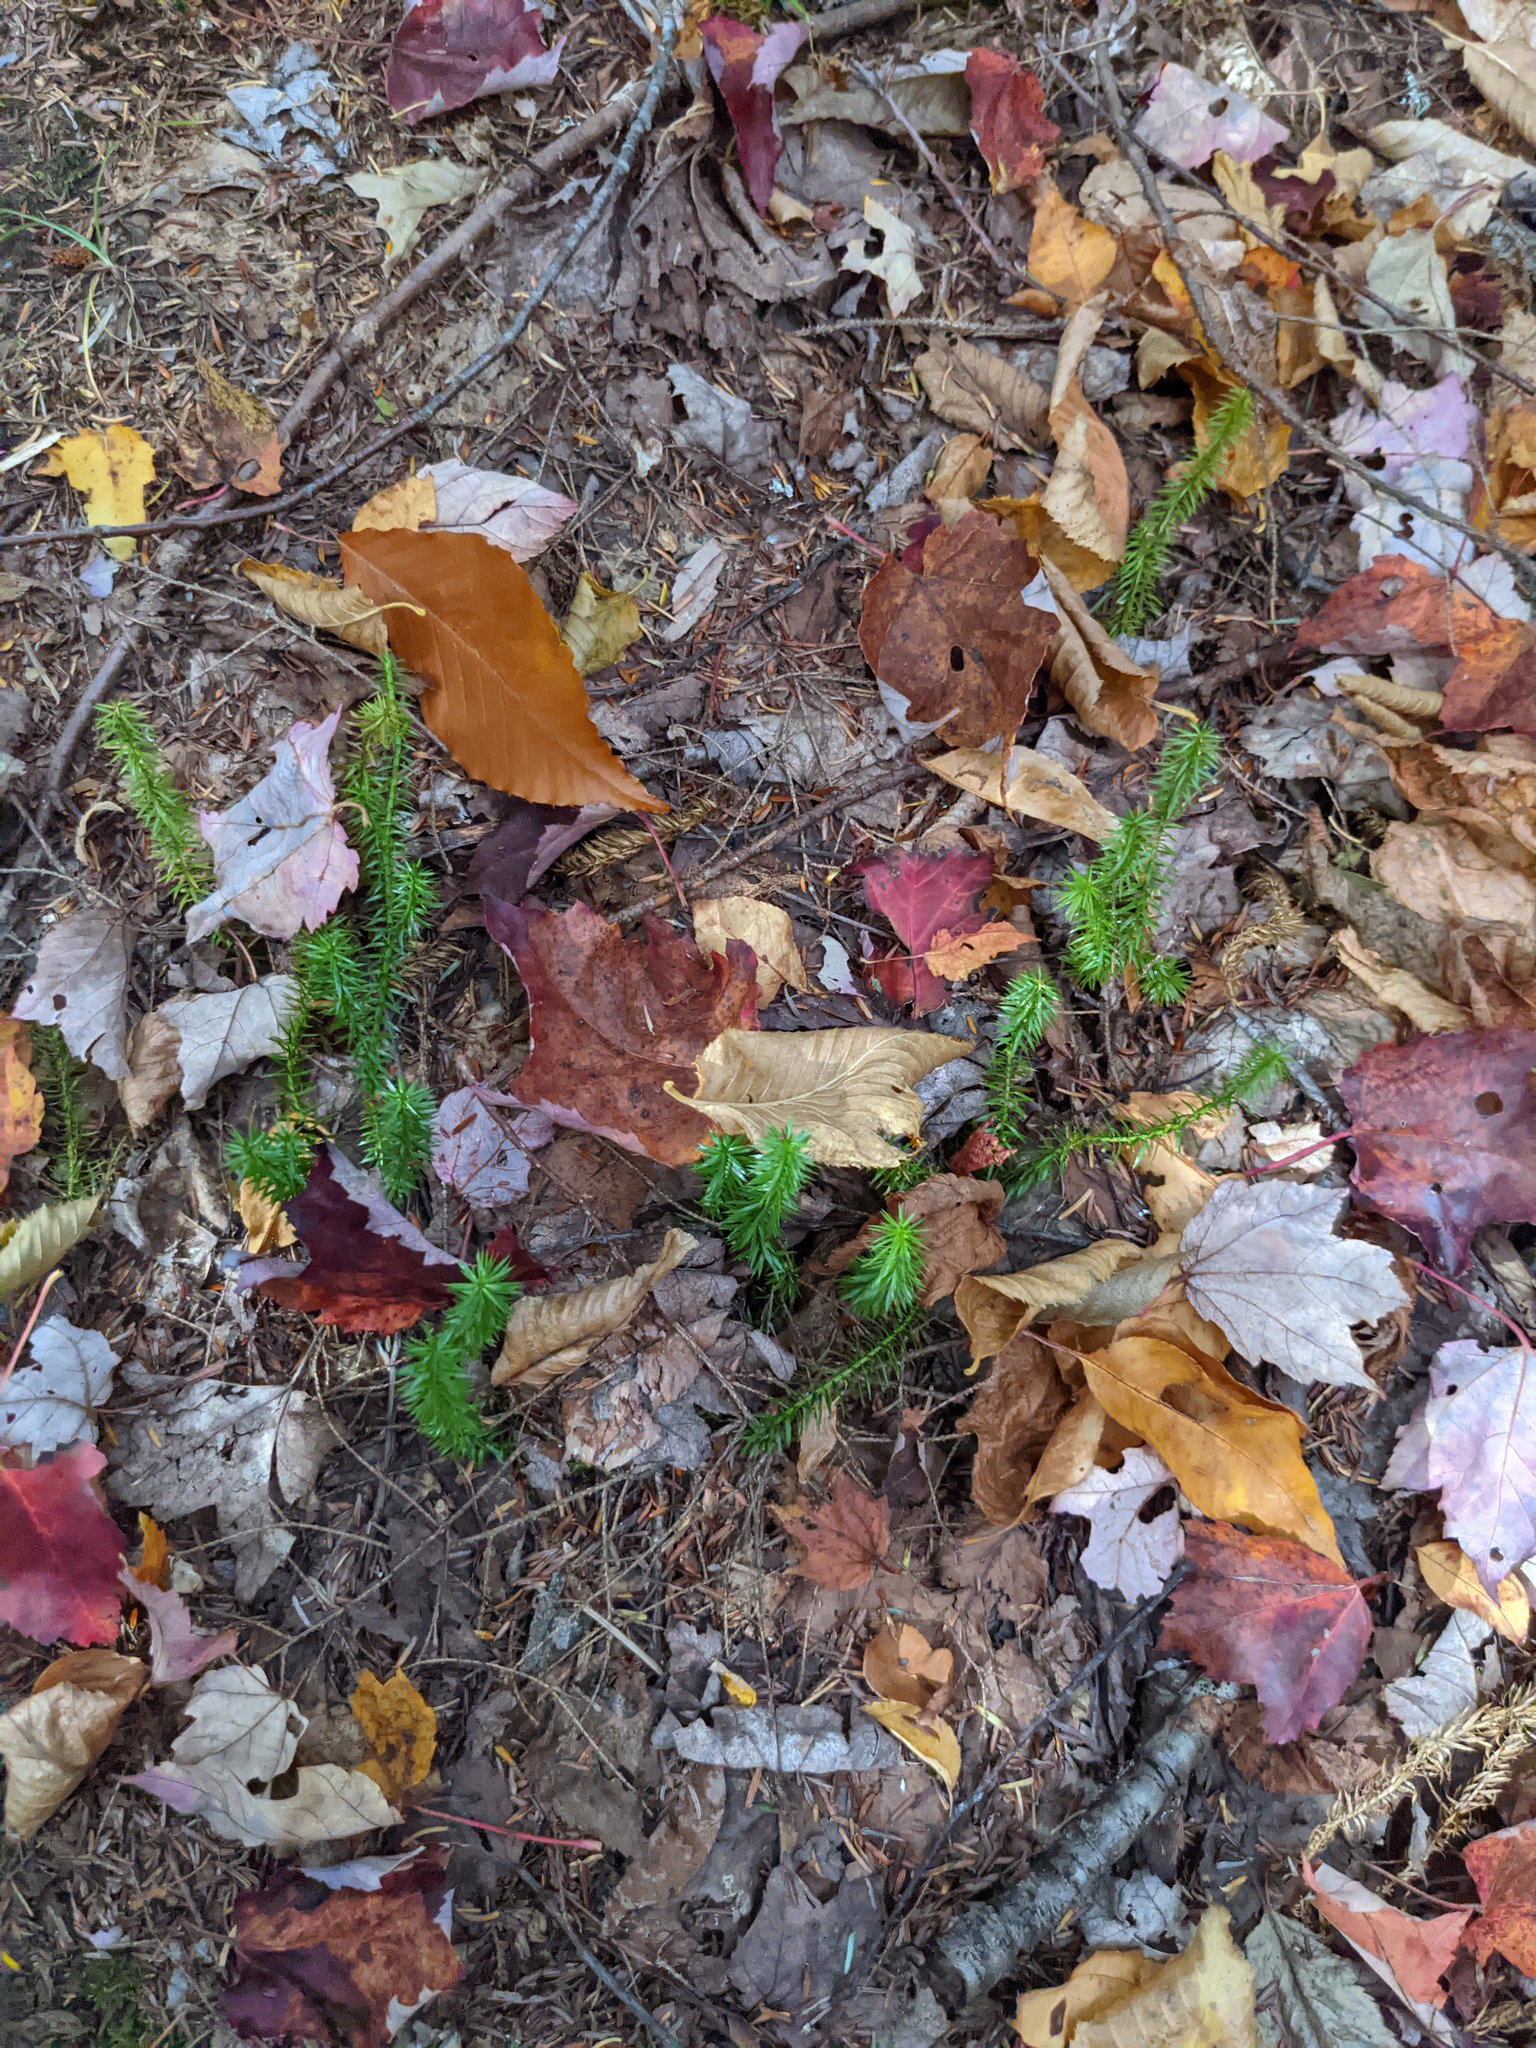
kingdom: Plantae
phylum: Tracheophyta
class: Lycopodiopsida
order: Lycopodiales
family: Lycopodiaceae
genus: Spinulum
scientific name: Spinulum annotinum
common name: Interrupted club-moss
